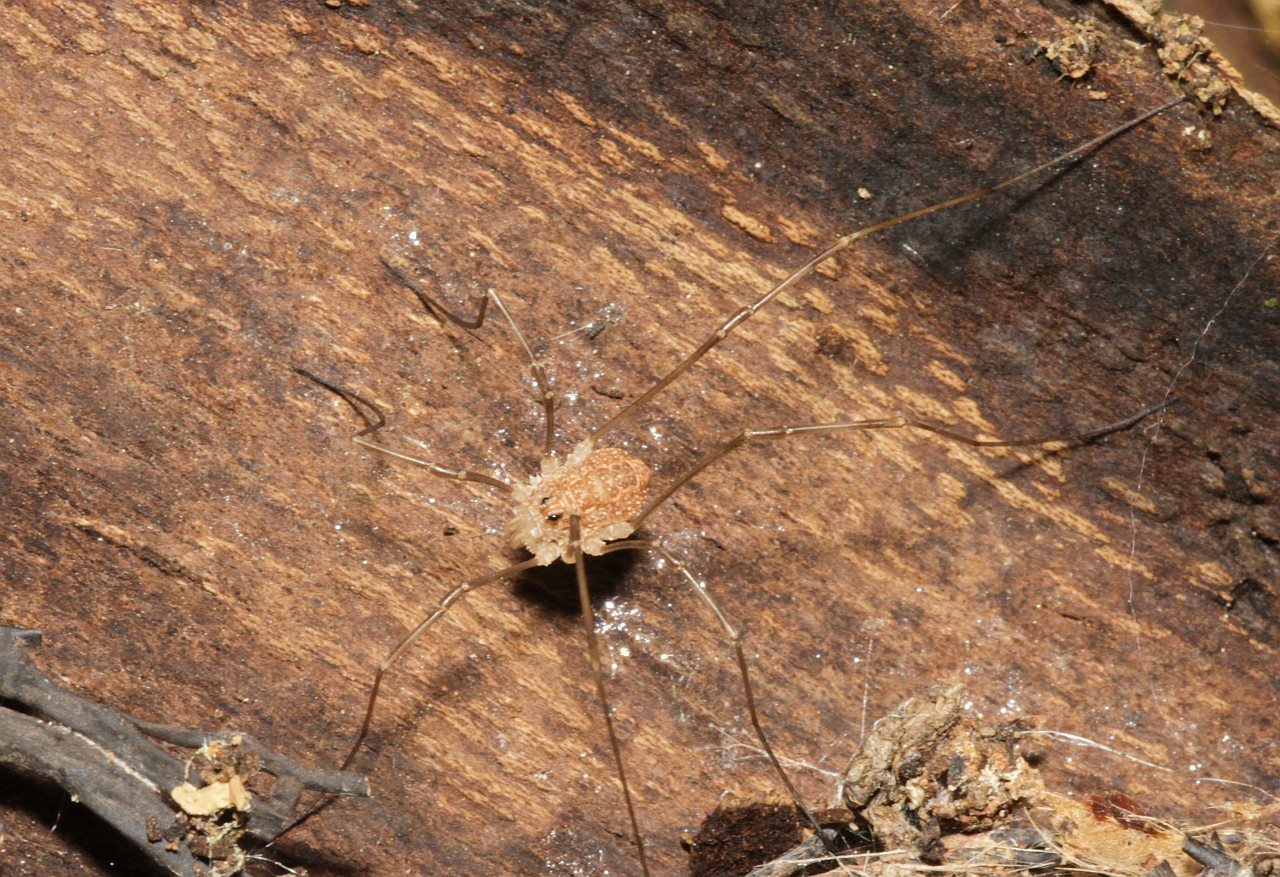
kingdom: Animalia
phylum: Arthropoda
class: Arachnida
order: Opiliones
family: Phalangiidae
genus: Rilaena
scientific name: Rilaena triangularis
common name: Spring harvestman
